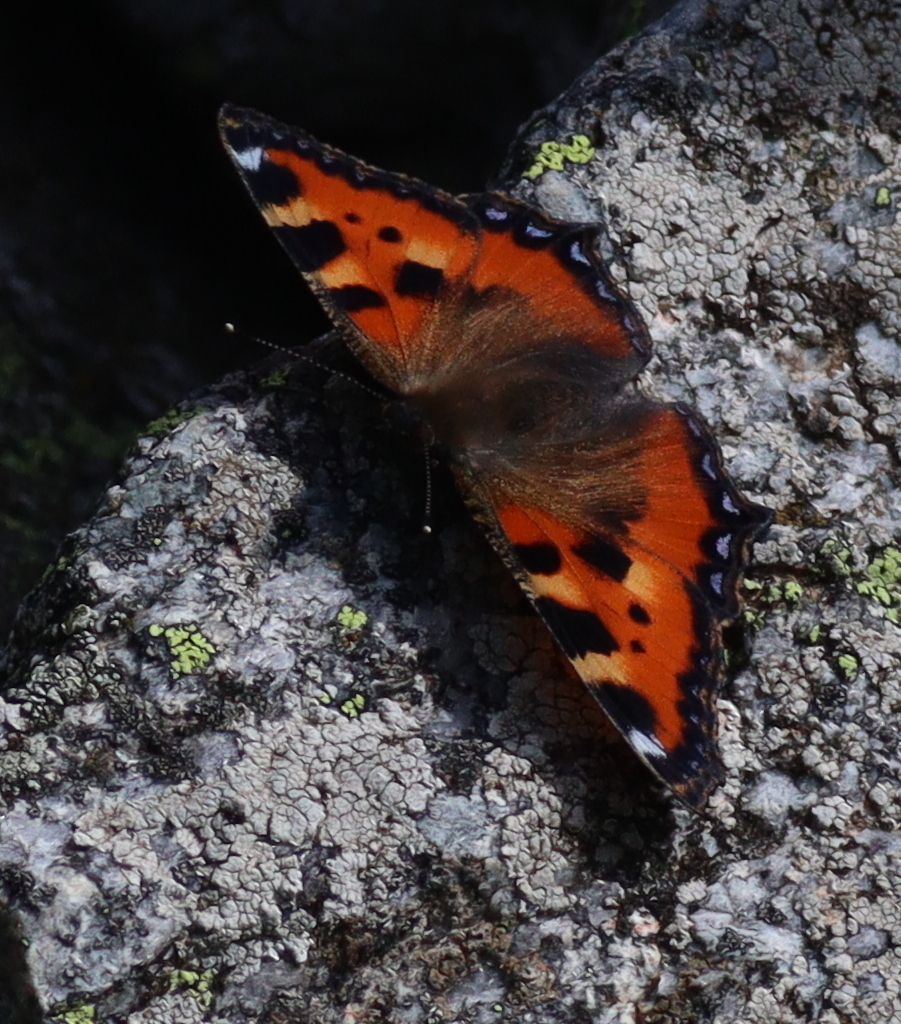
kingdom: Animalia
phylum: Arthropoda
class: Insecta
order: Lepidoptera
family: Nymphalidae
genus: Aglais
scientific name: Aglais urticae
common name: Small tortoiseshell
